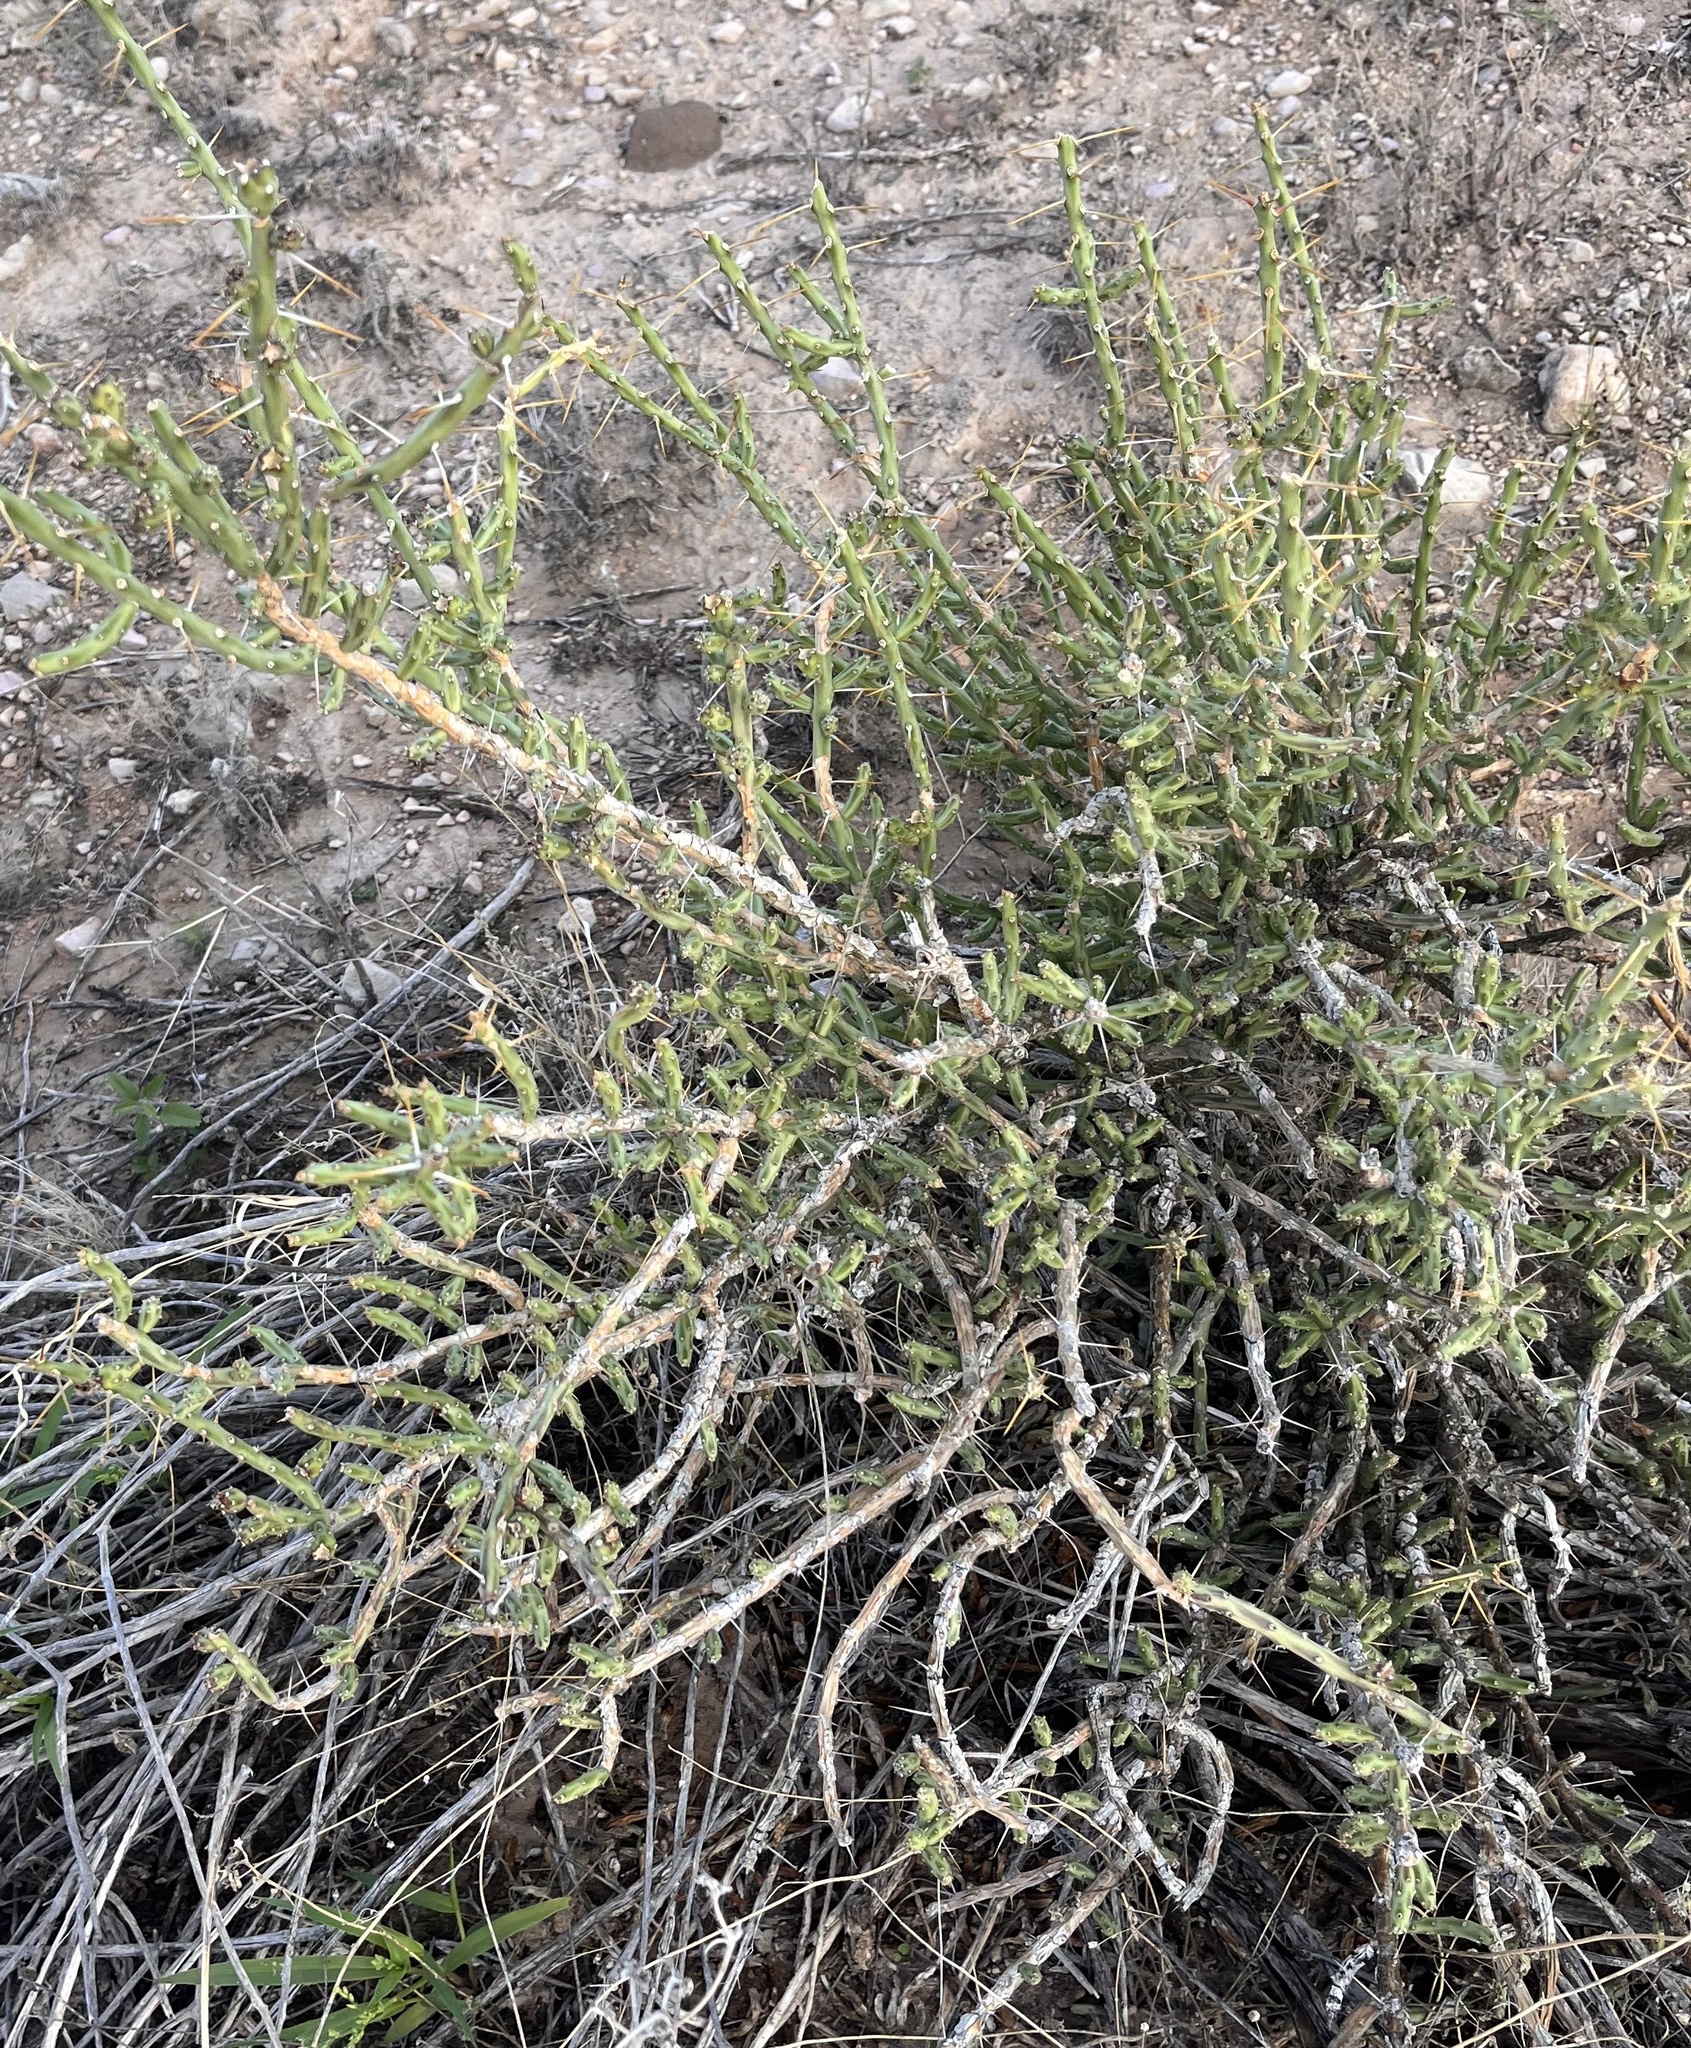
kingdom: Plantae
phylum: Tracheophyta
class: Magnoliopsida
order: Caryophyllales
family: Cactaceae
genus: Cylindropuntia
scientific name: Cylindropuntia leptocaulis
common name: Christmas cactus
